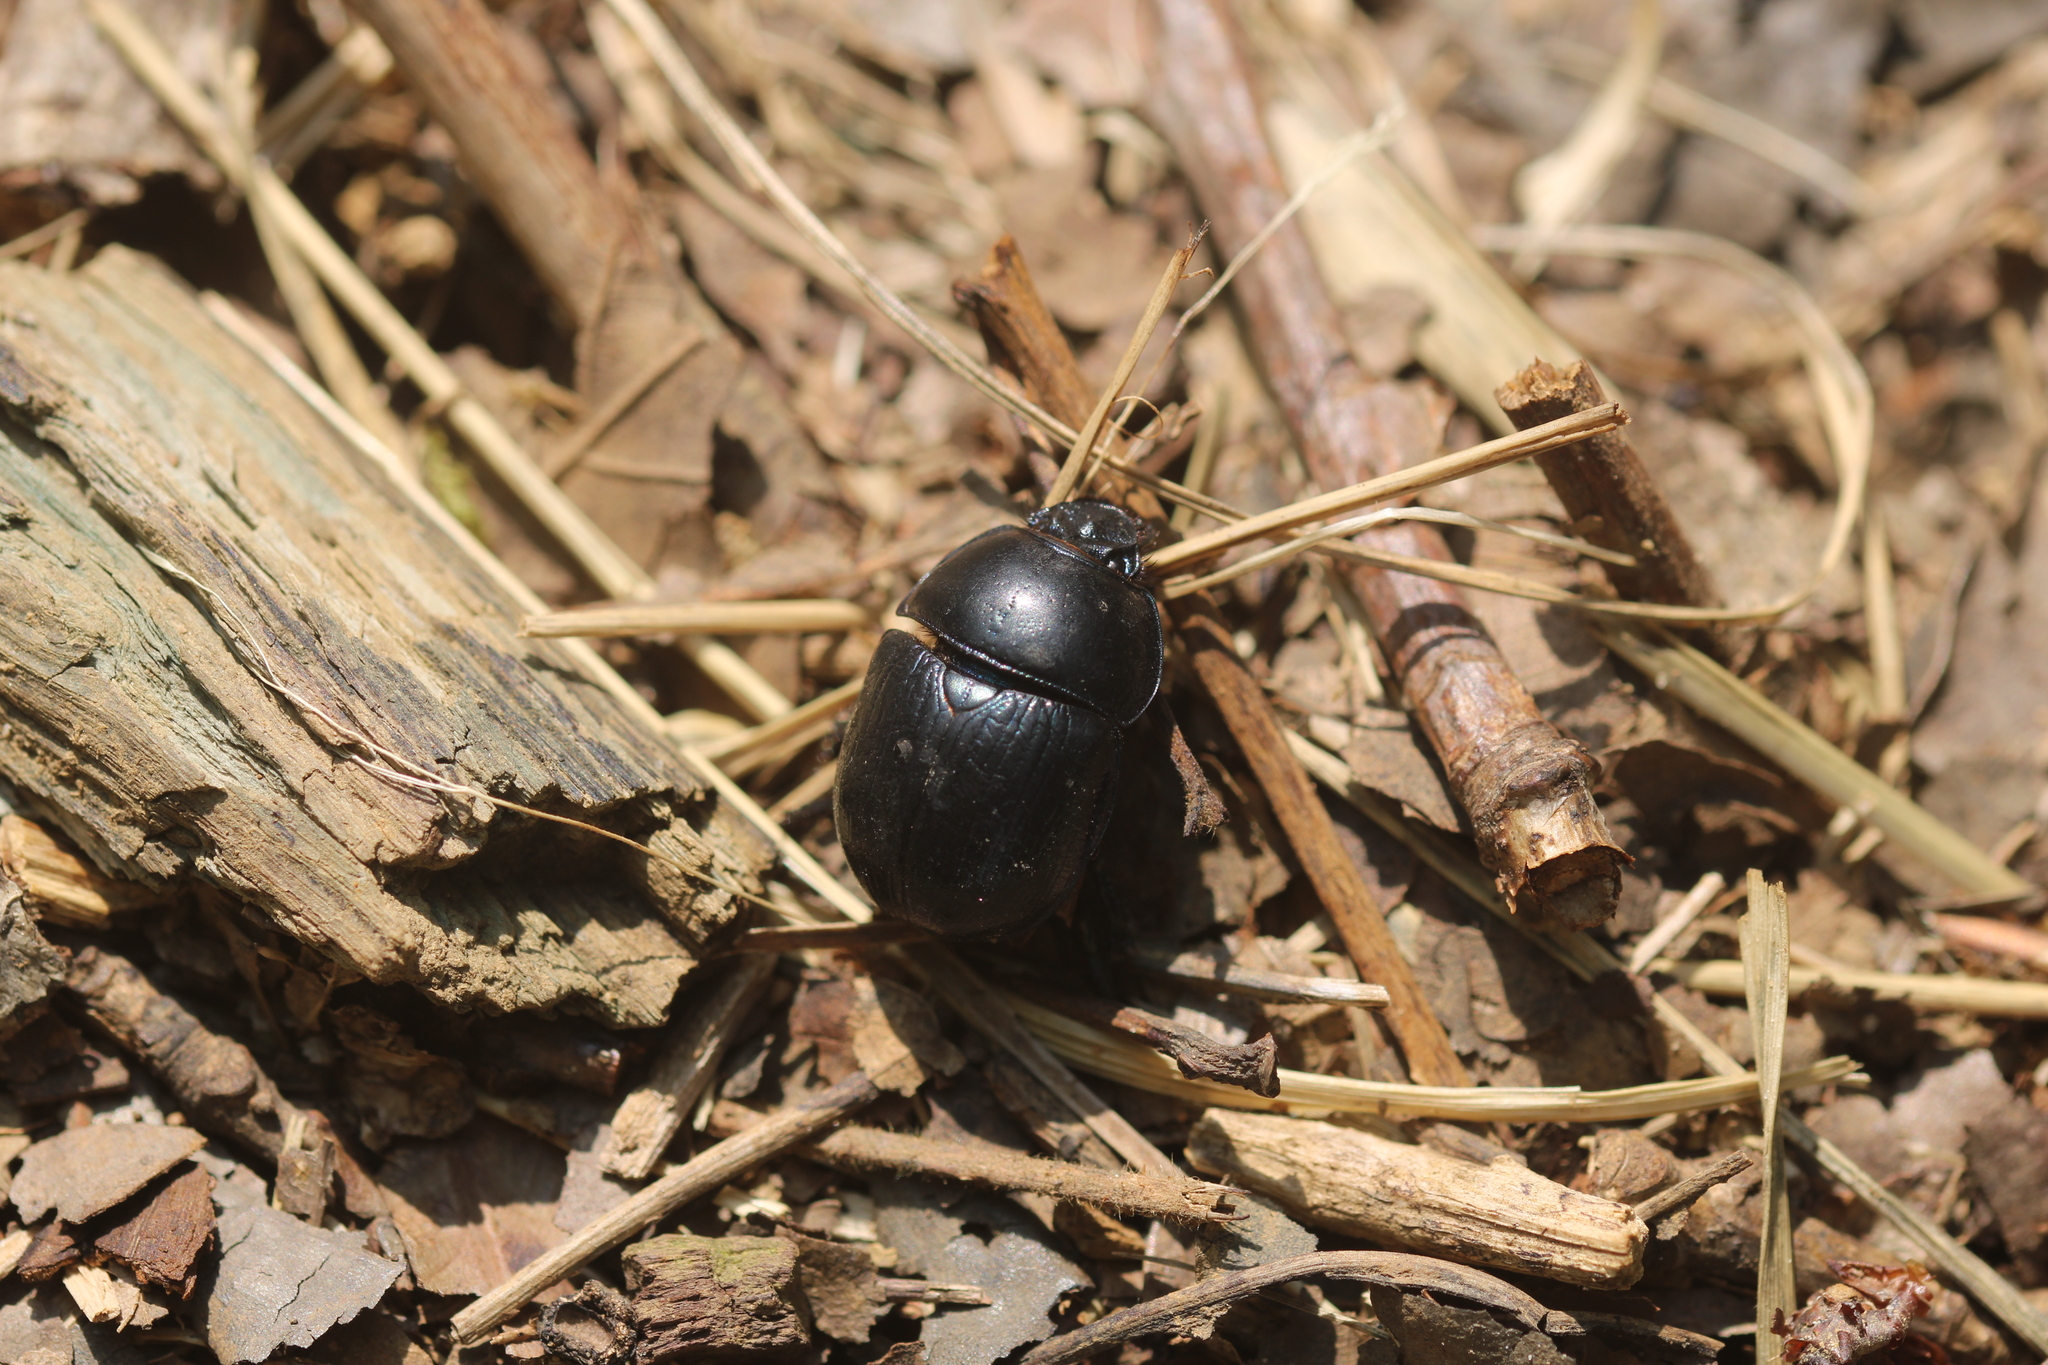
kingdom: Animalia
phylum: Arthropoda
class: Insecta
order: Coleoptera
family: Geotrupidae
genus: Anoplotrupes
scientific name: Anoplotrupes stercorosus
